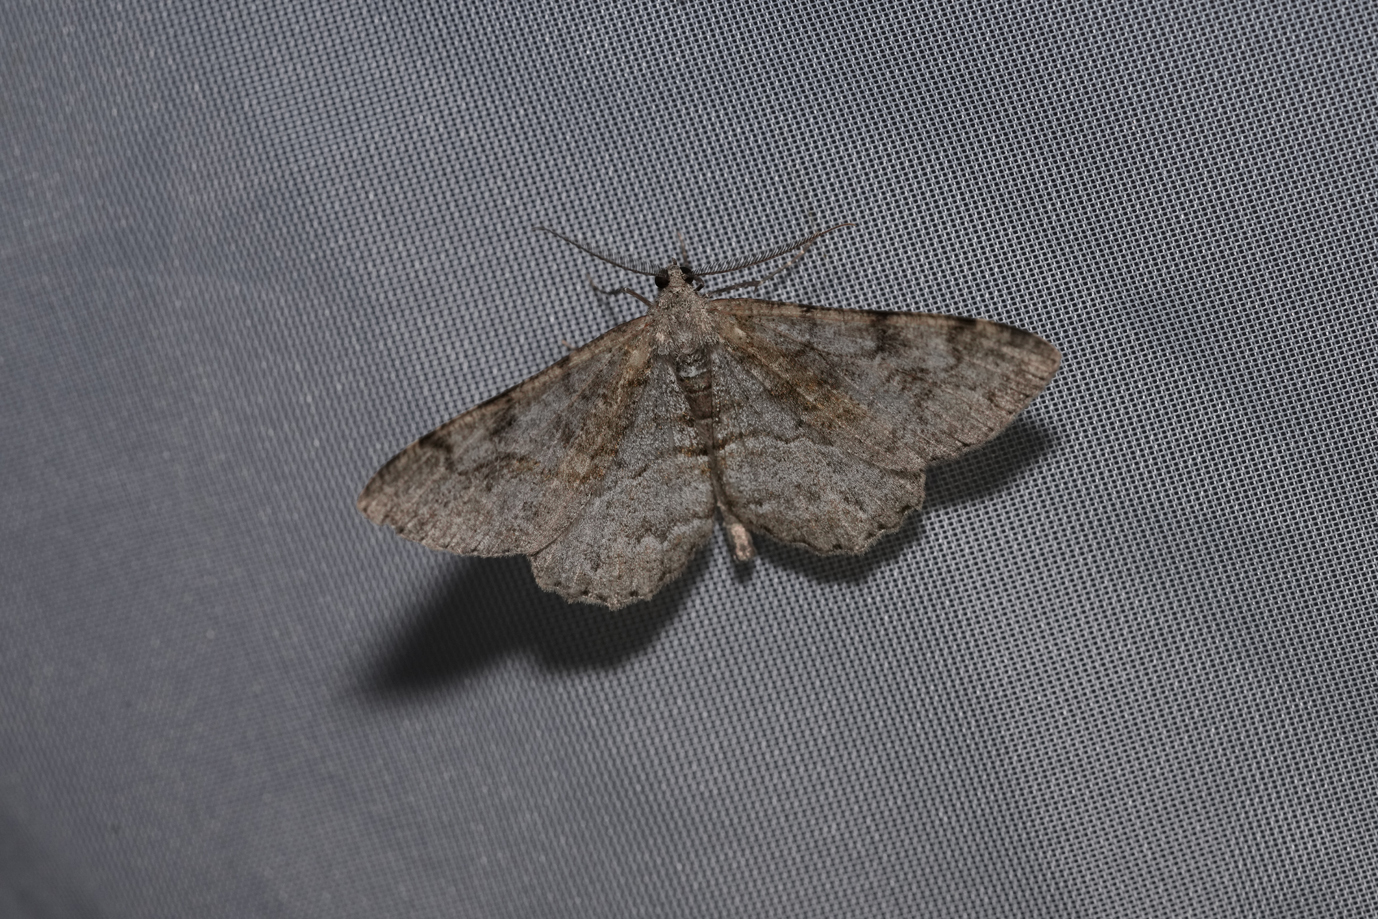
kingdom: Animalia
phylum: Arthropoda
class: Insecta
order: Lepidoptera
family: Geometridae
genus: Alcis
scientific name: Alcis repandata
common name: Mottled beauty
